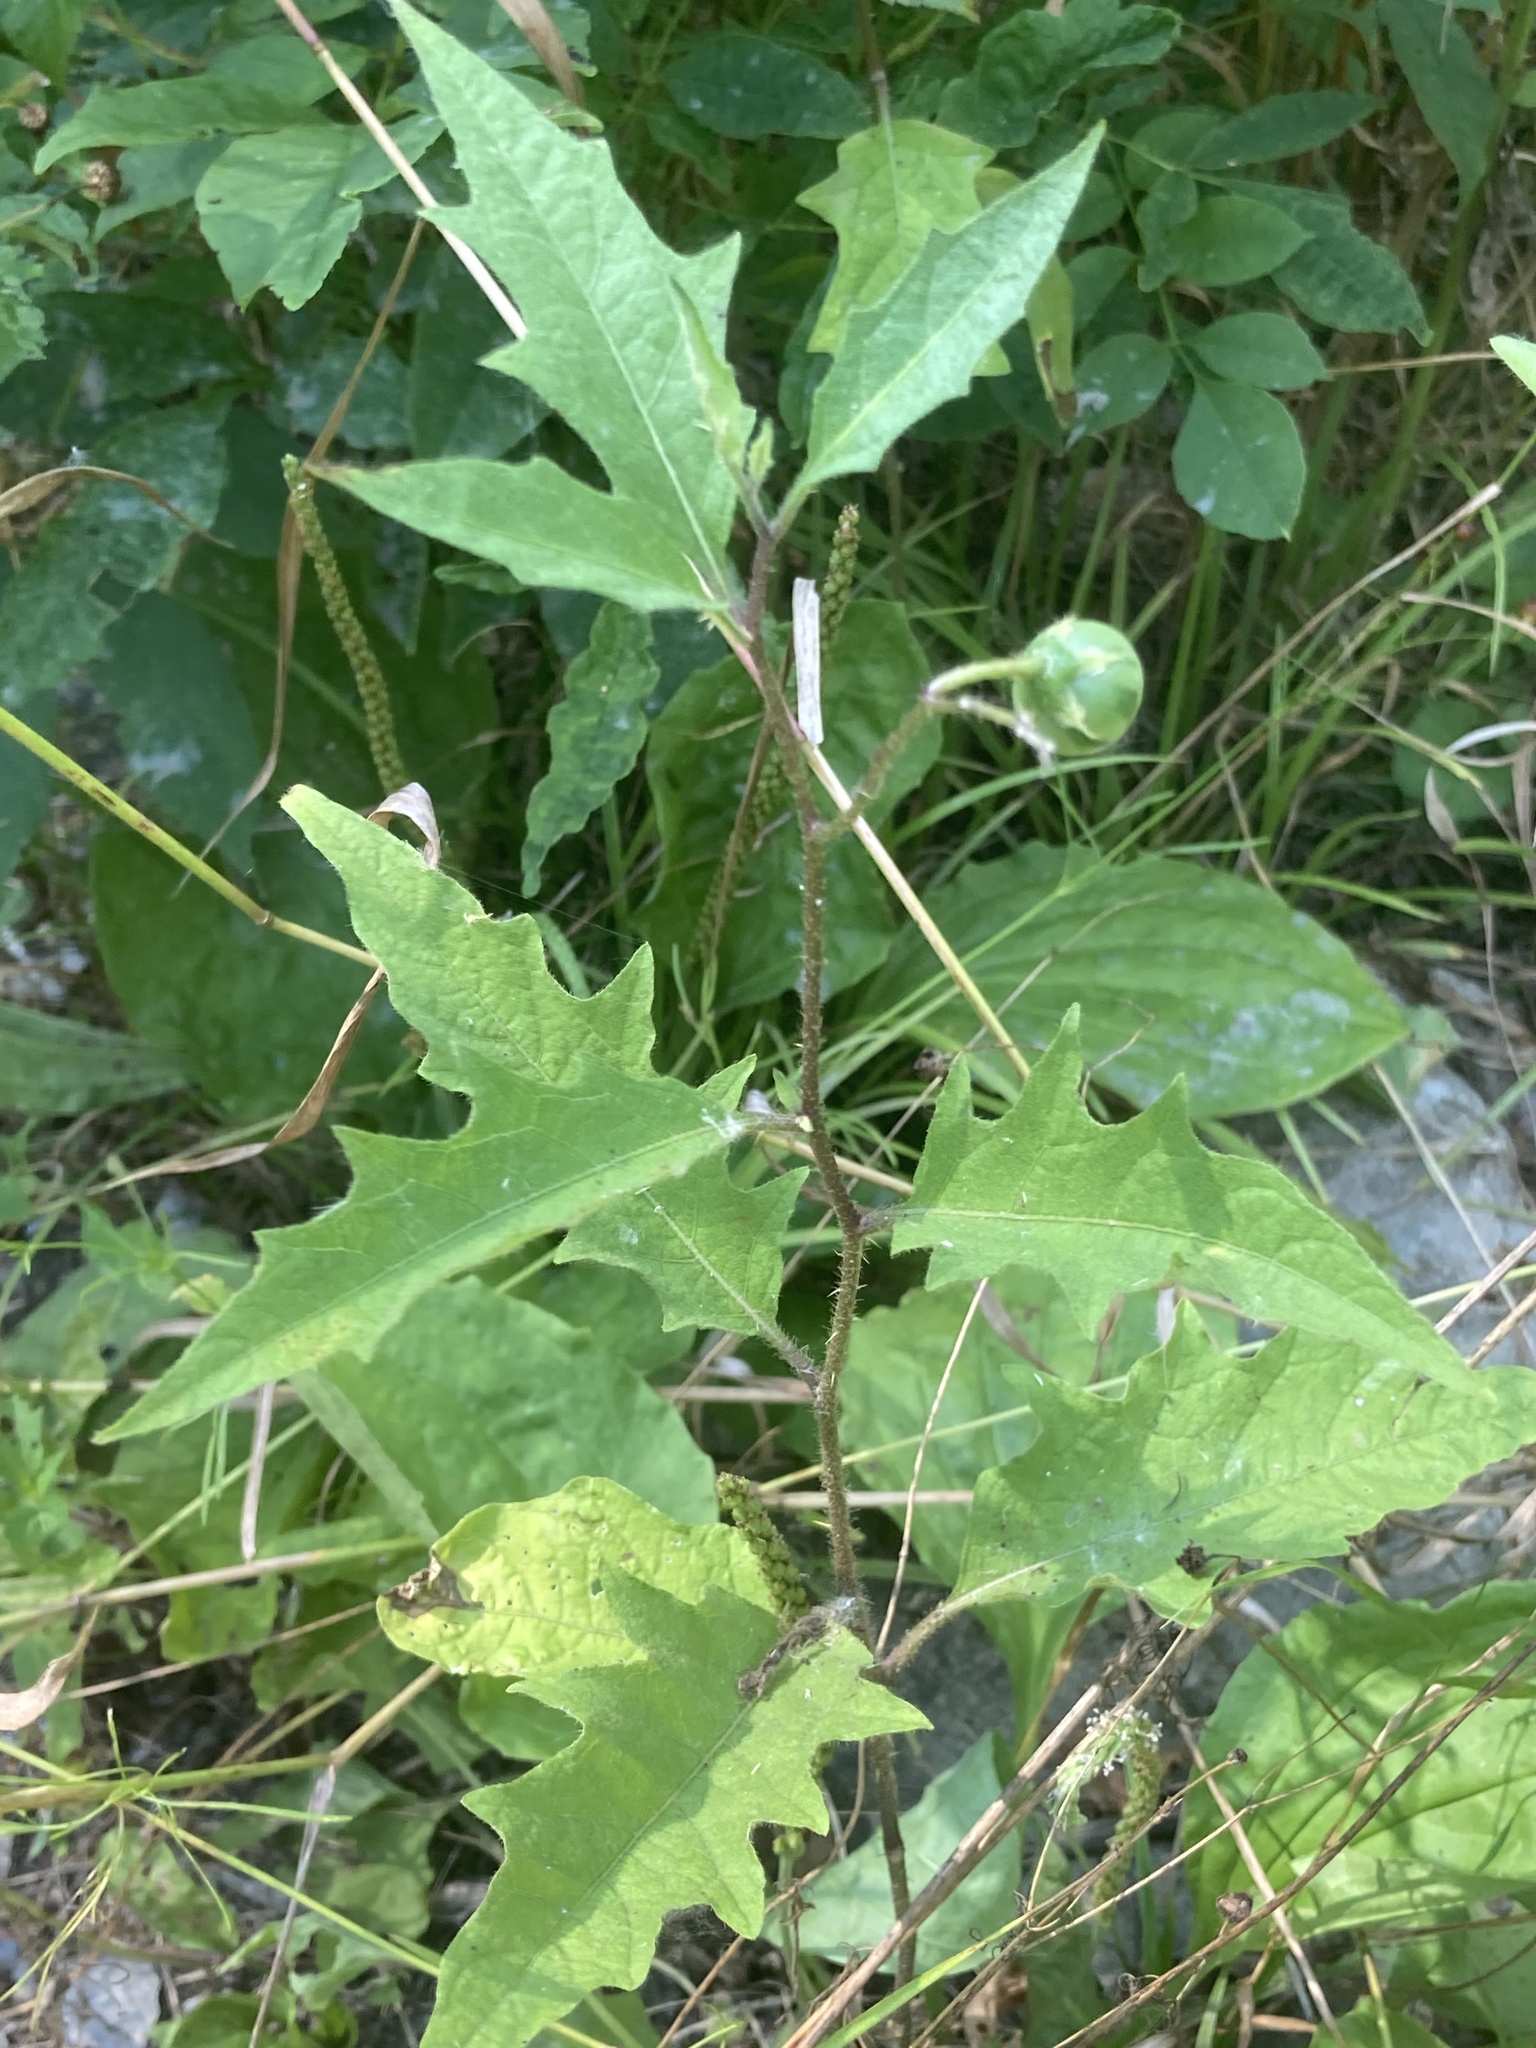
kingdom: Plantae
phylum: Tracheophyta
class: Magnoliopsida
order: Solanales
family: Solanaceae
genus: Solanum
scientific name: Solanum carolinense
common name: Horse-nettle
